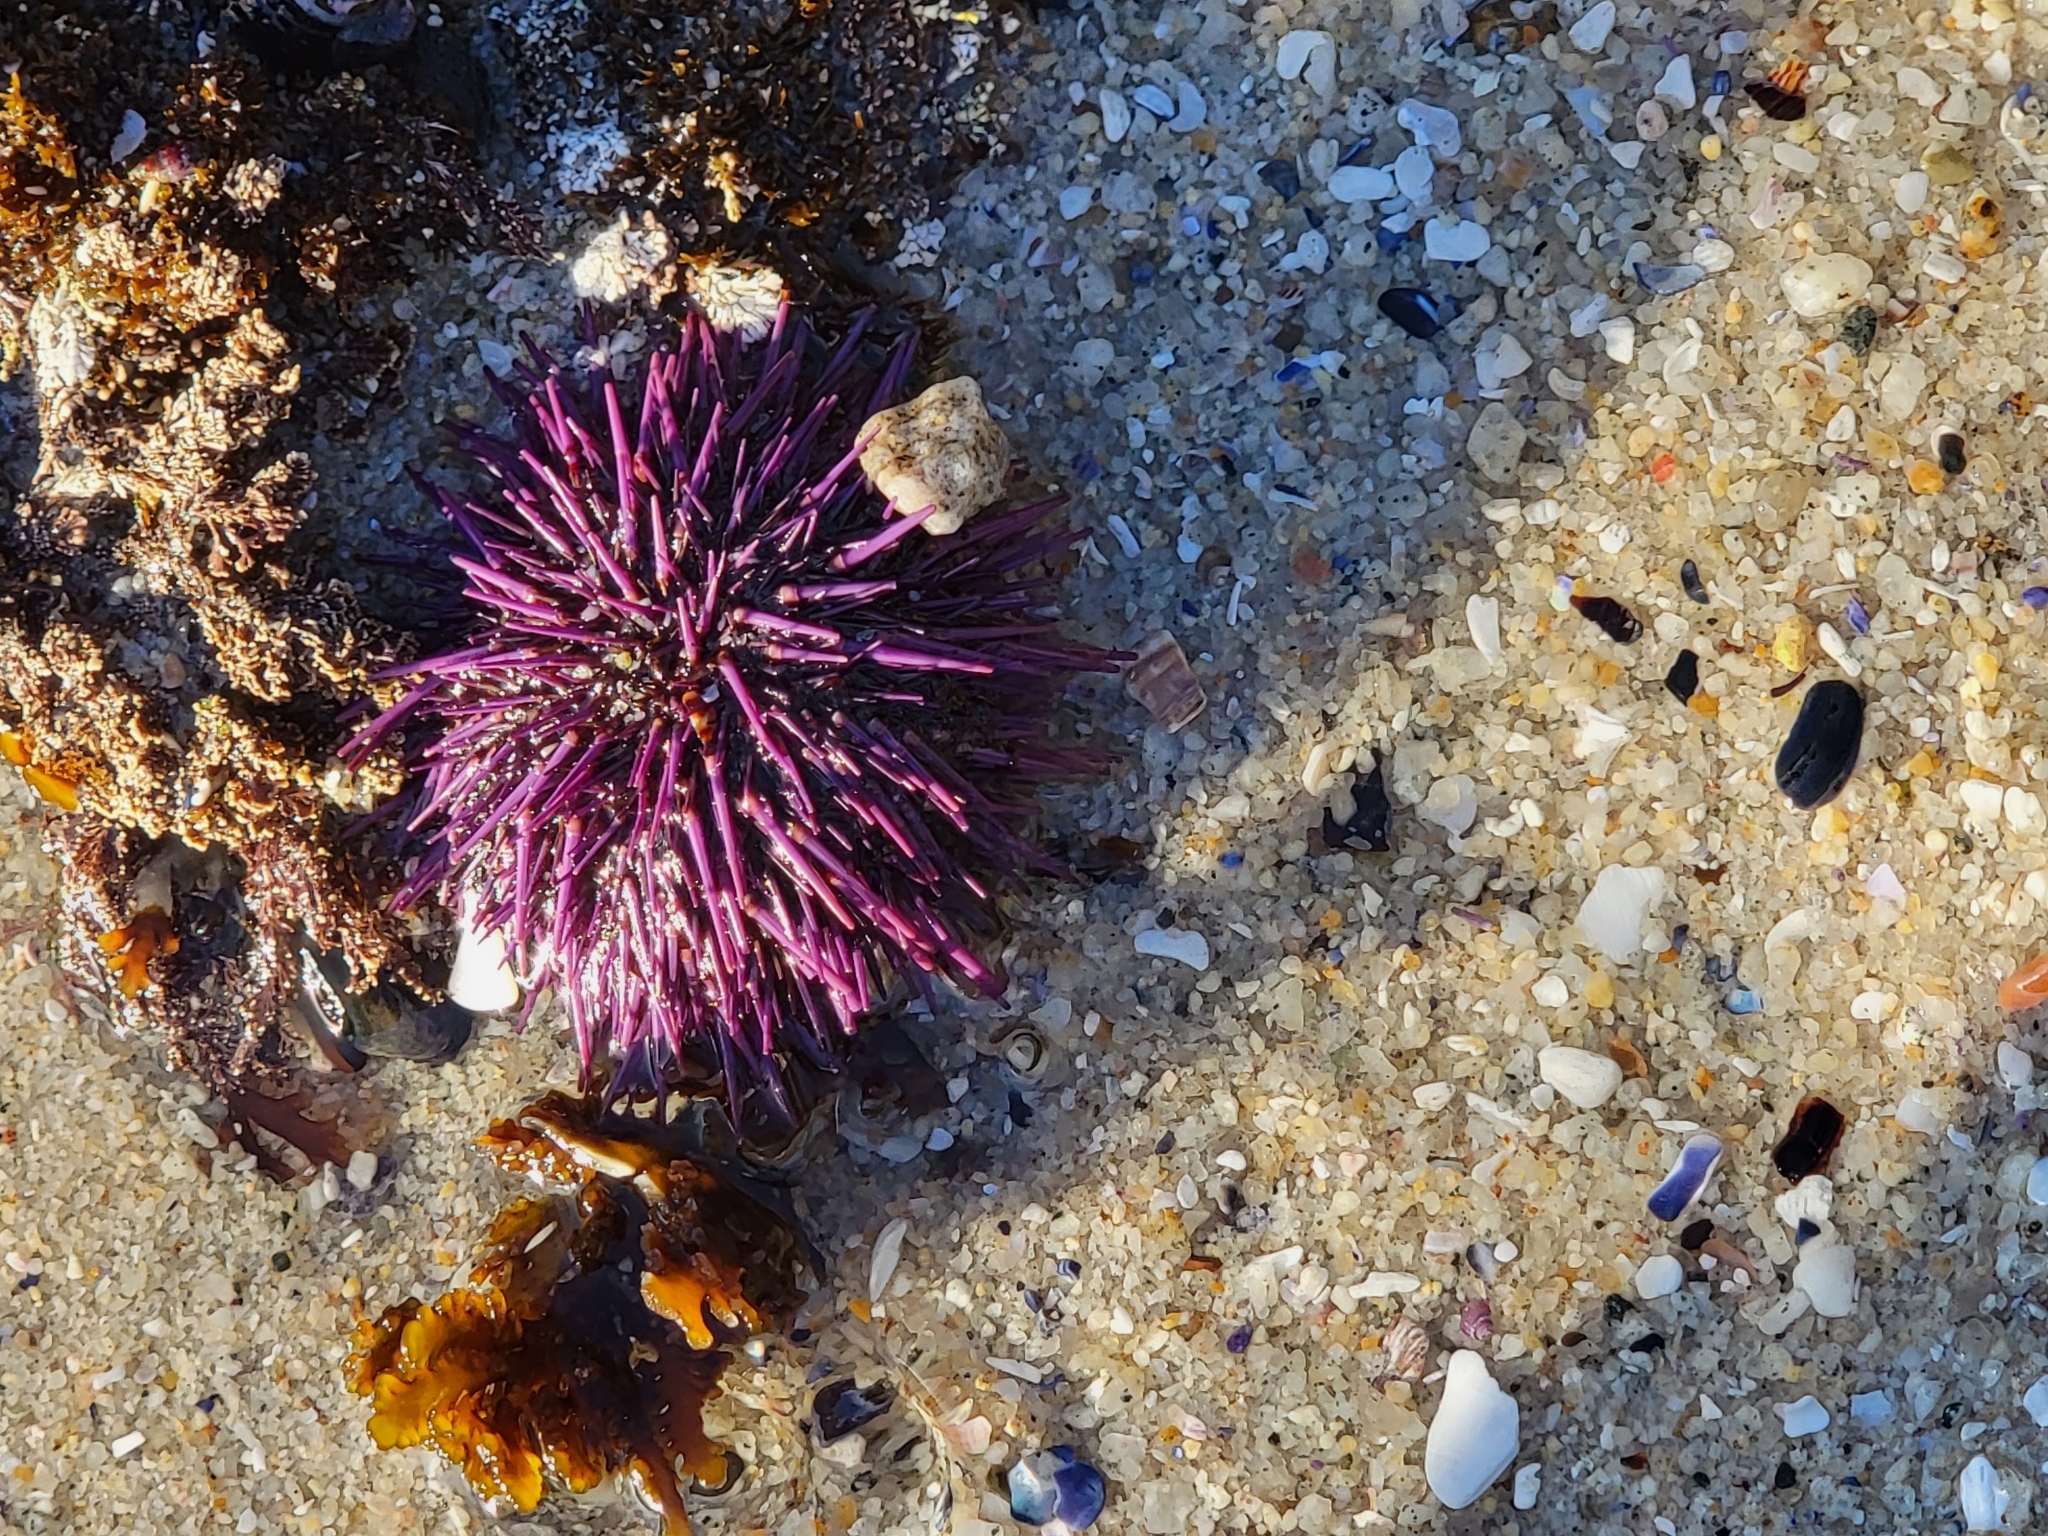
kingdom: Animalia
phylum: Echinodermata
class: Echinoidea
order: Camarodonta
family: Strongylocentrotidae
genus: Strongylocentrotus
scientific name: Strongylocentrotus purpuratus
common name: Purple sea urchin
